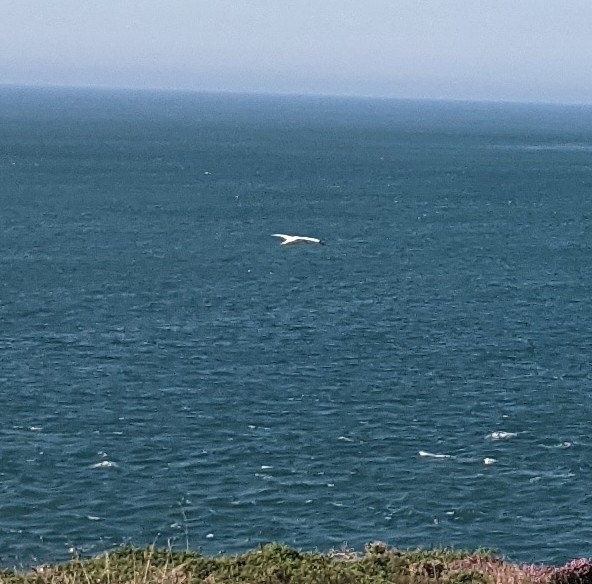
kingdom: Animalia
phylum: Chordata
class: Aves
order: Suliformes
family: Sulidae
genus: Morus
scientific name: Morus bassanus
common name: Northern gannet
